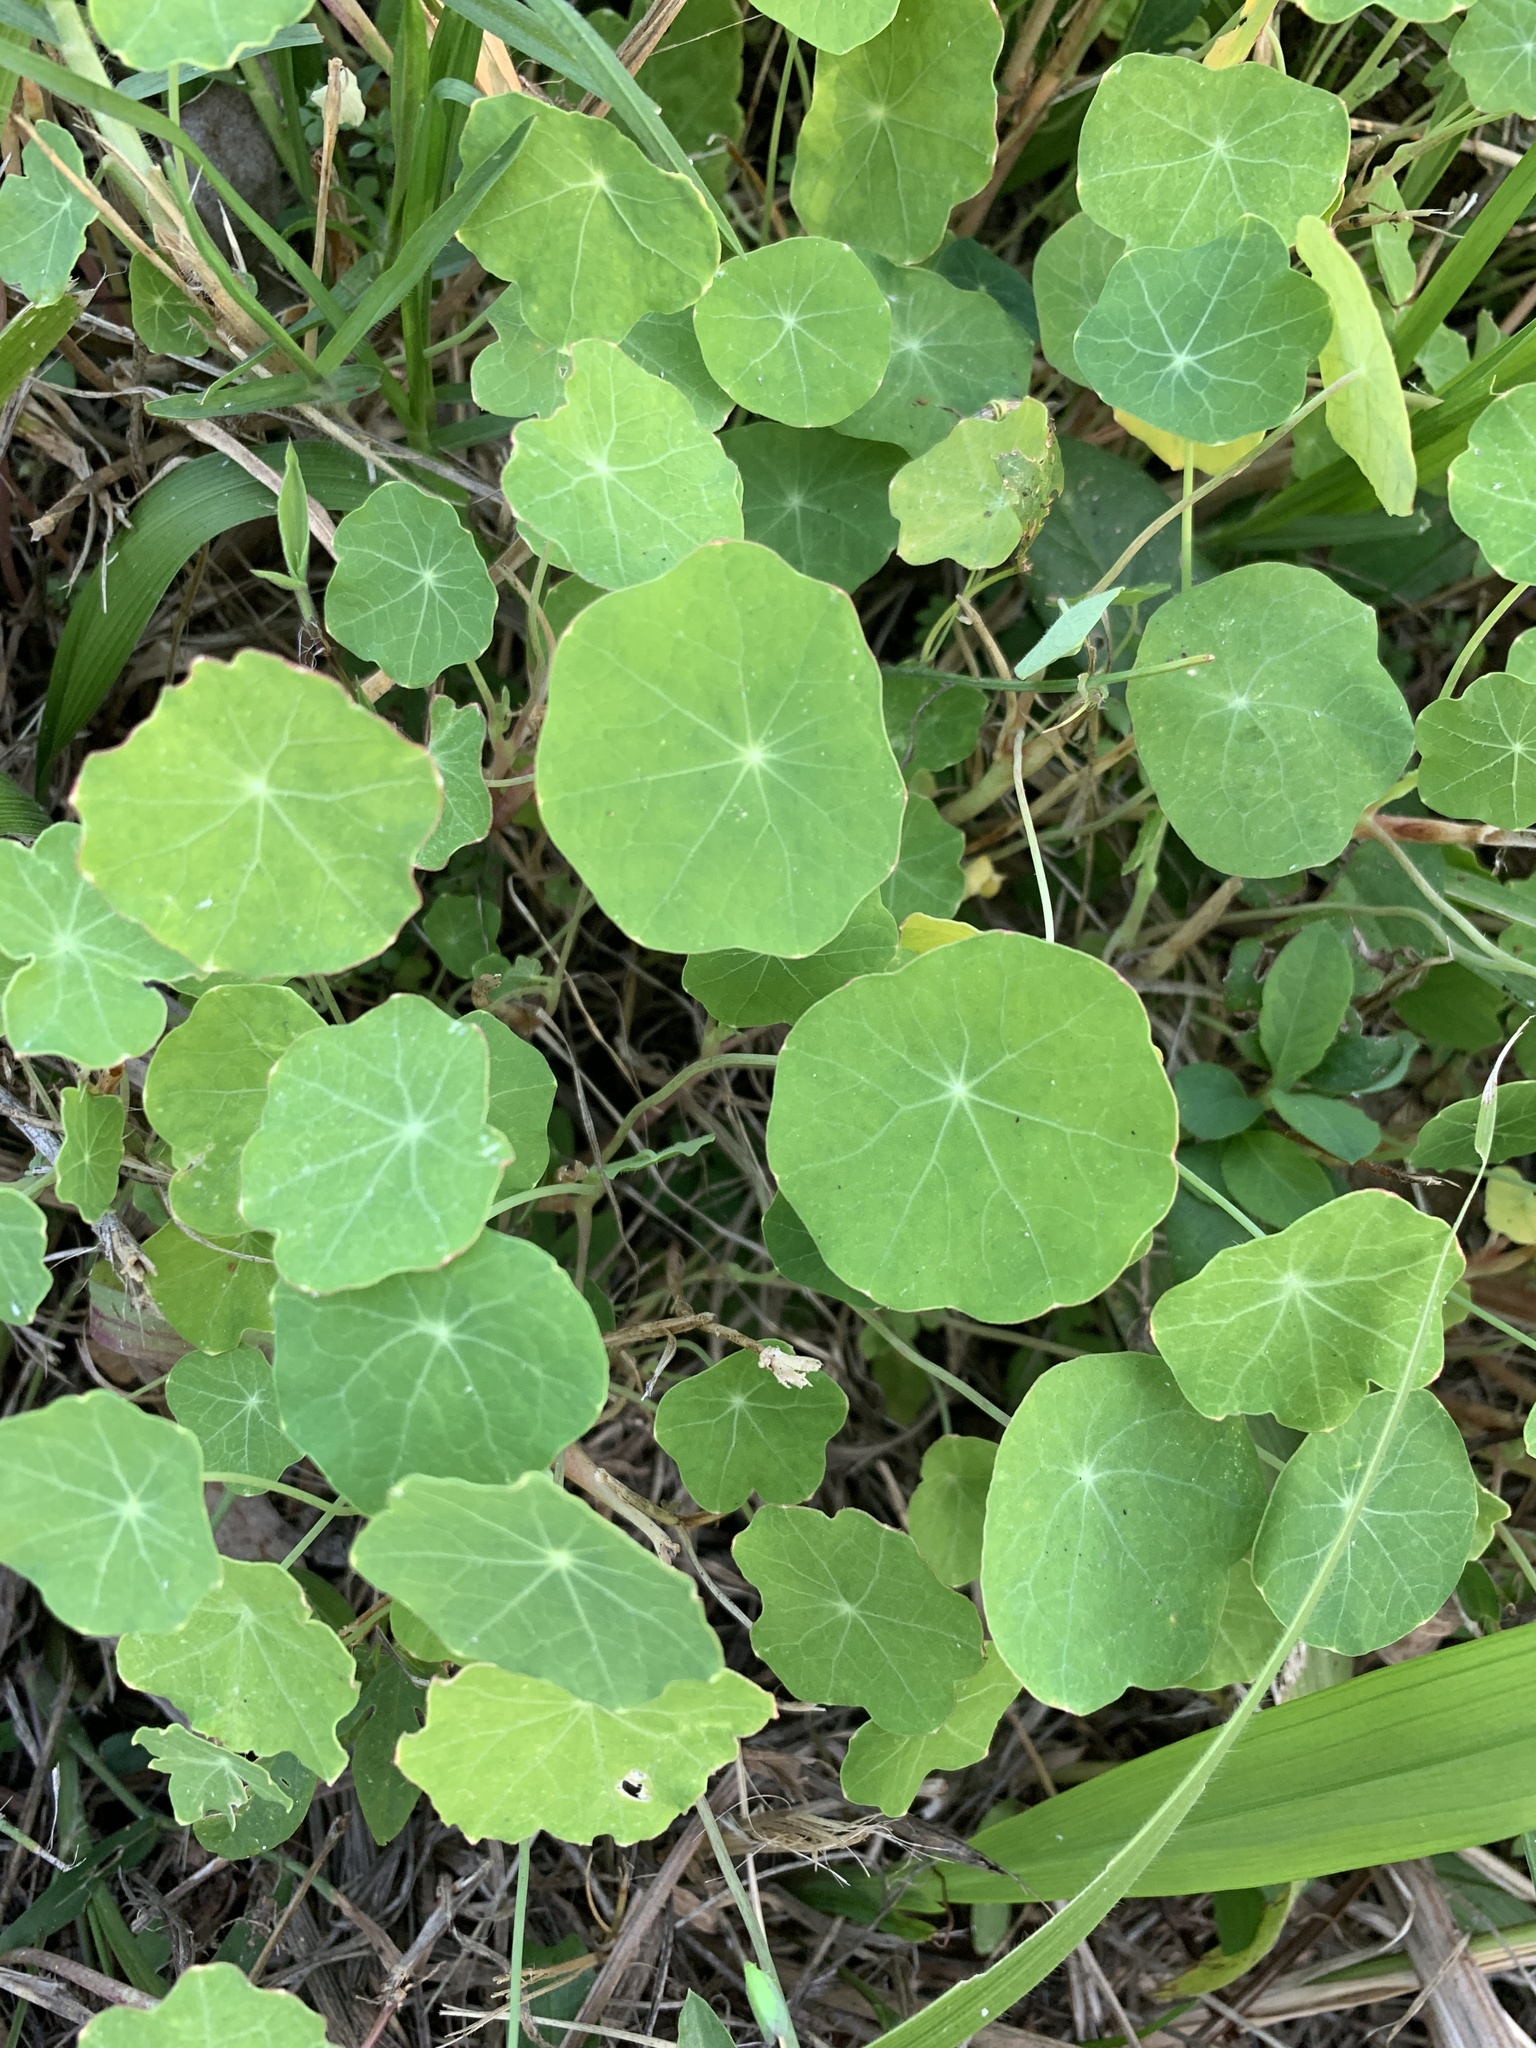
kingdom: Plantae
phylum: Tracheophyta
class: Magnoliopsida
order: Brassicales
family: Tropaeolaceae
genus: Tropaeolum
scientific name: Tropaeolum majus
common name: Nasturtium
